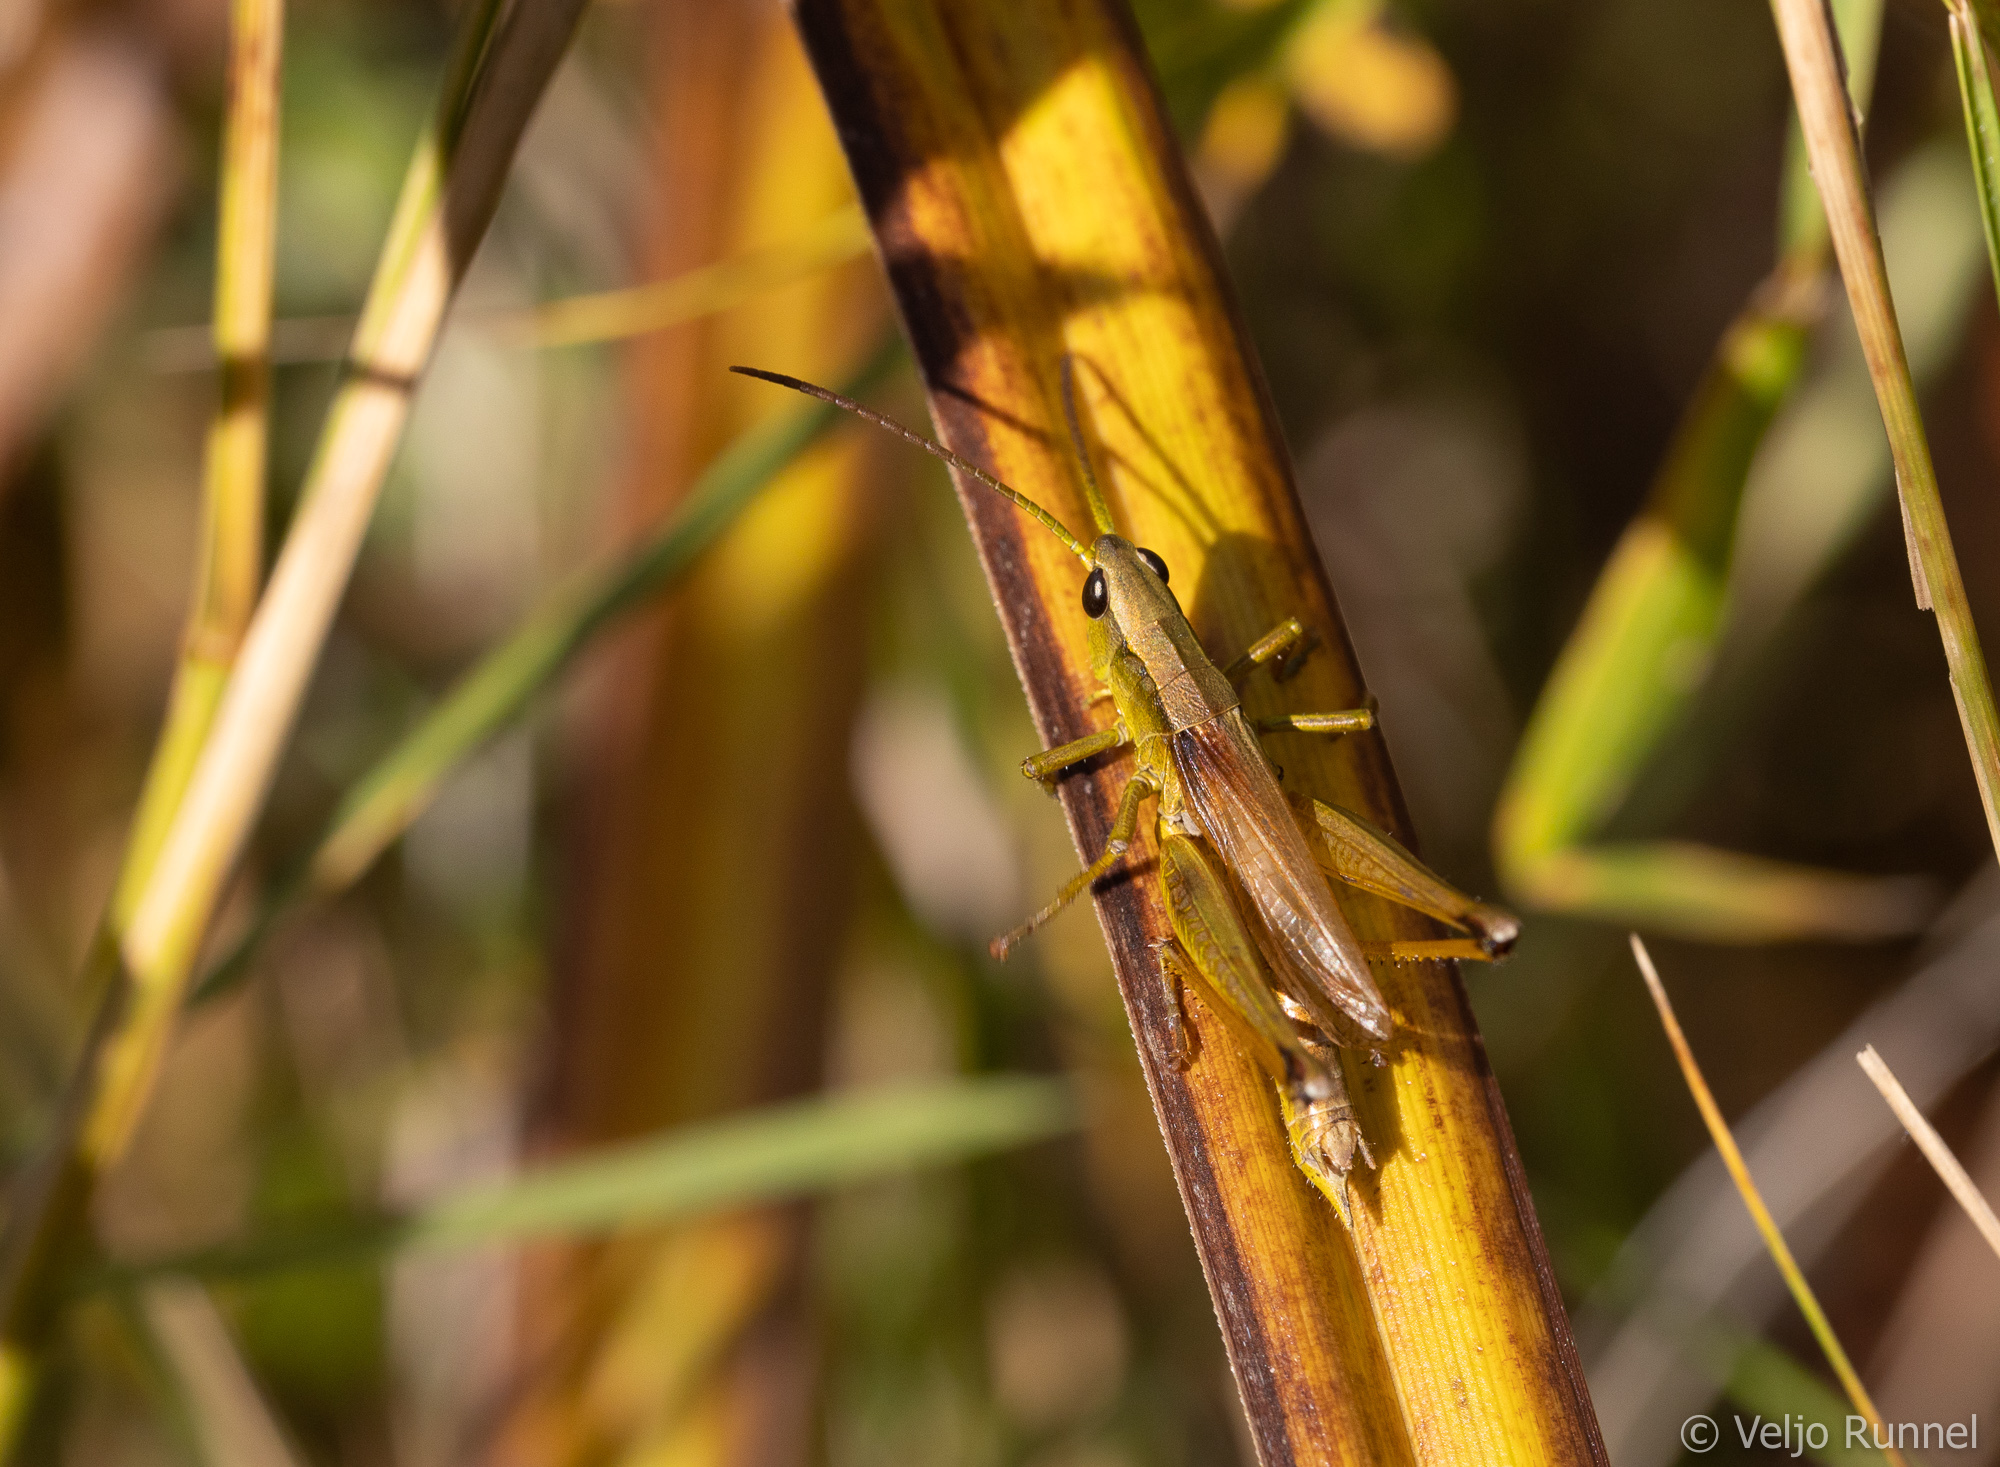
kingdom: Animalia
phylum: Arthropoda
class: Insecta
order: Orthoptera
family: Acrididae
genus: Chrysochraon
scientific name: Chrysochraon dispar
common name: Large gold grasshopper
